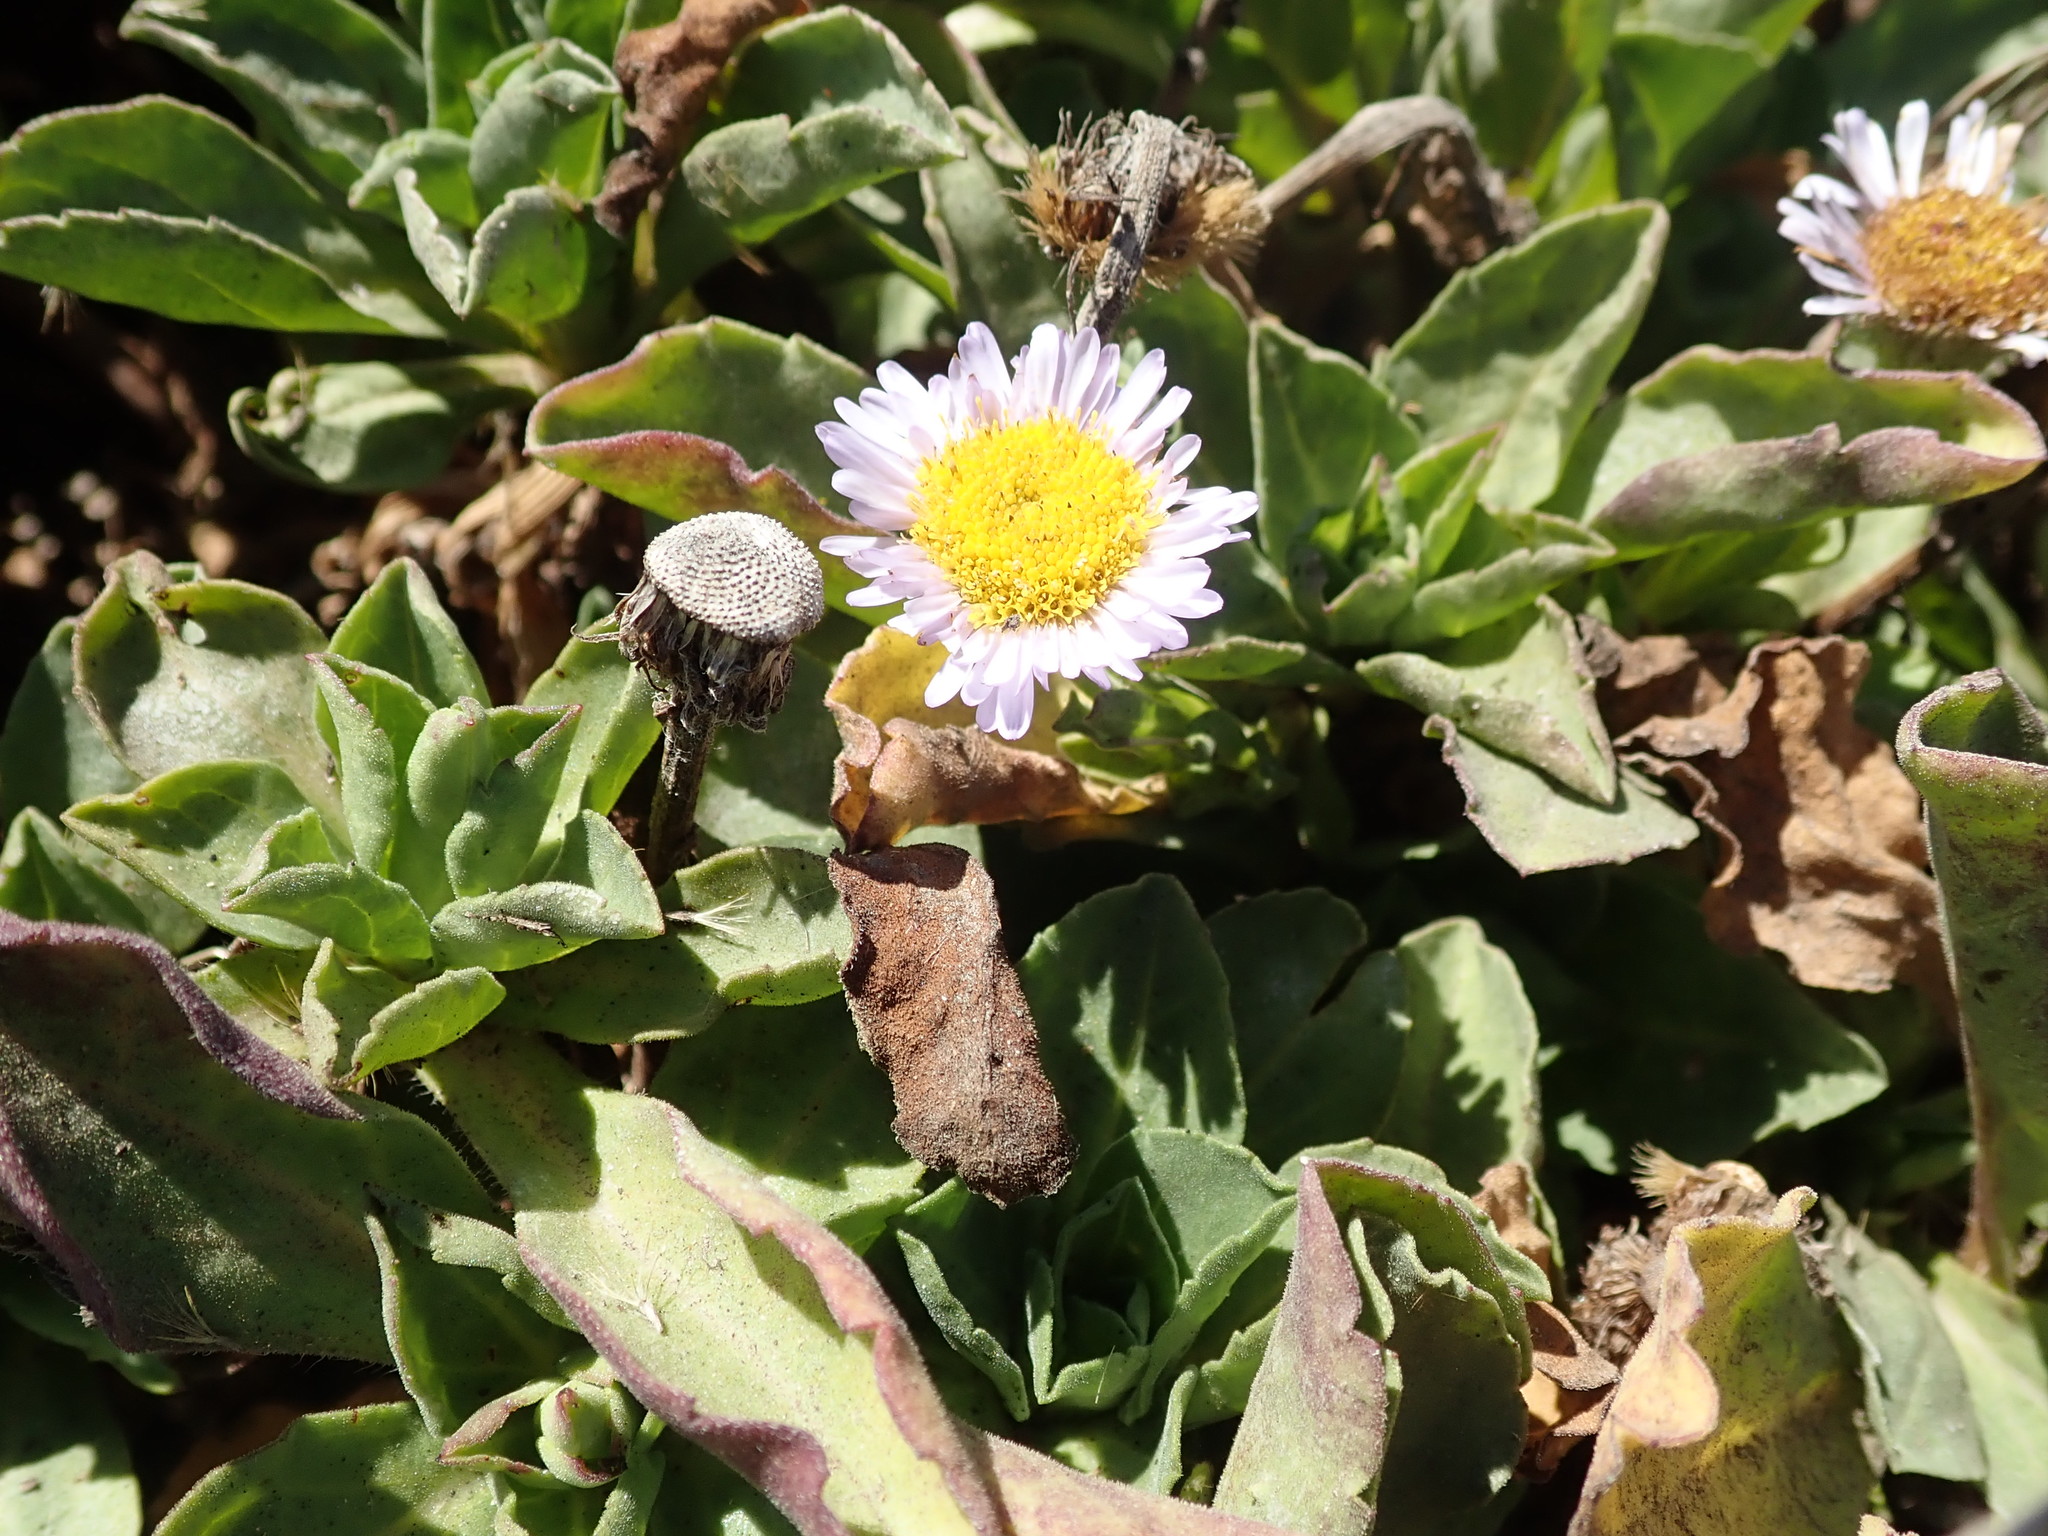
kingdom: Plantae
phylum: Tracheophyta
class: Magnoliopsida
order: Asterales
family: Asteraceae
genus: Erigeron
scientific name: Erigeron glaucus
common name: Seaside daisy
